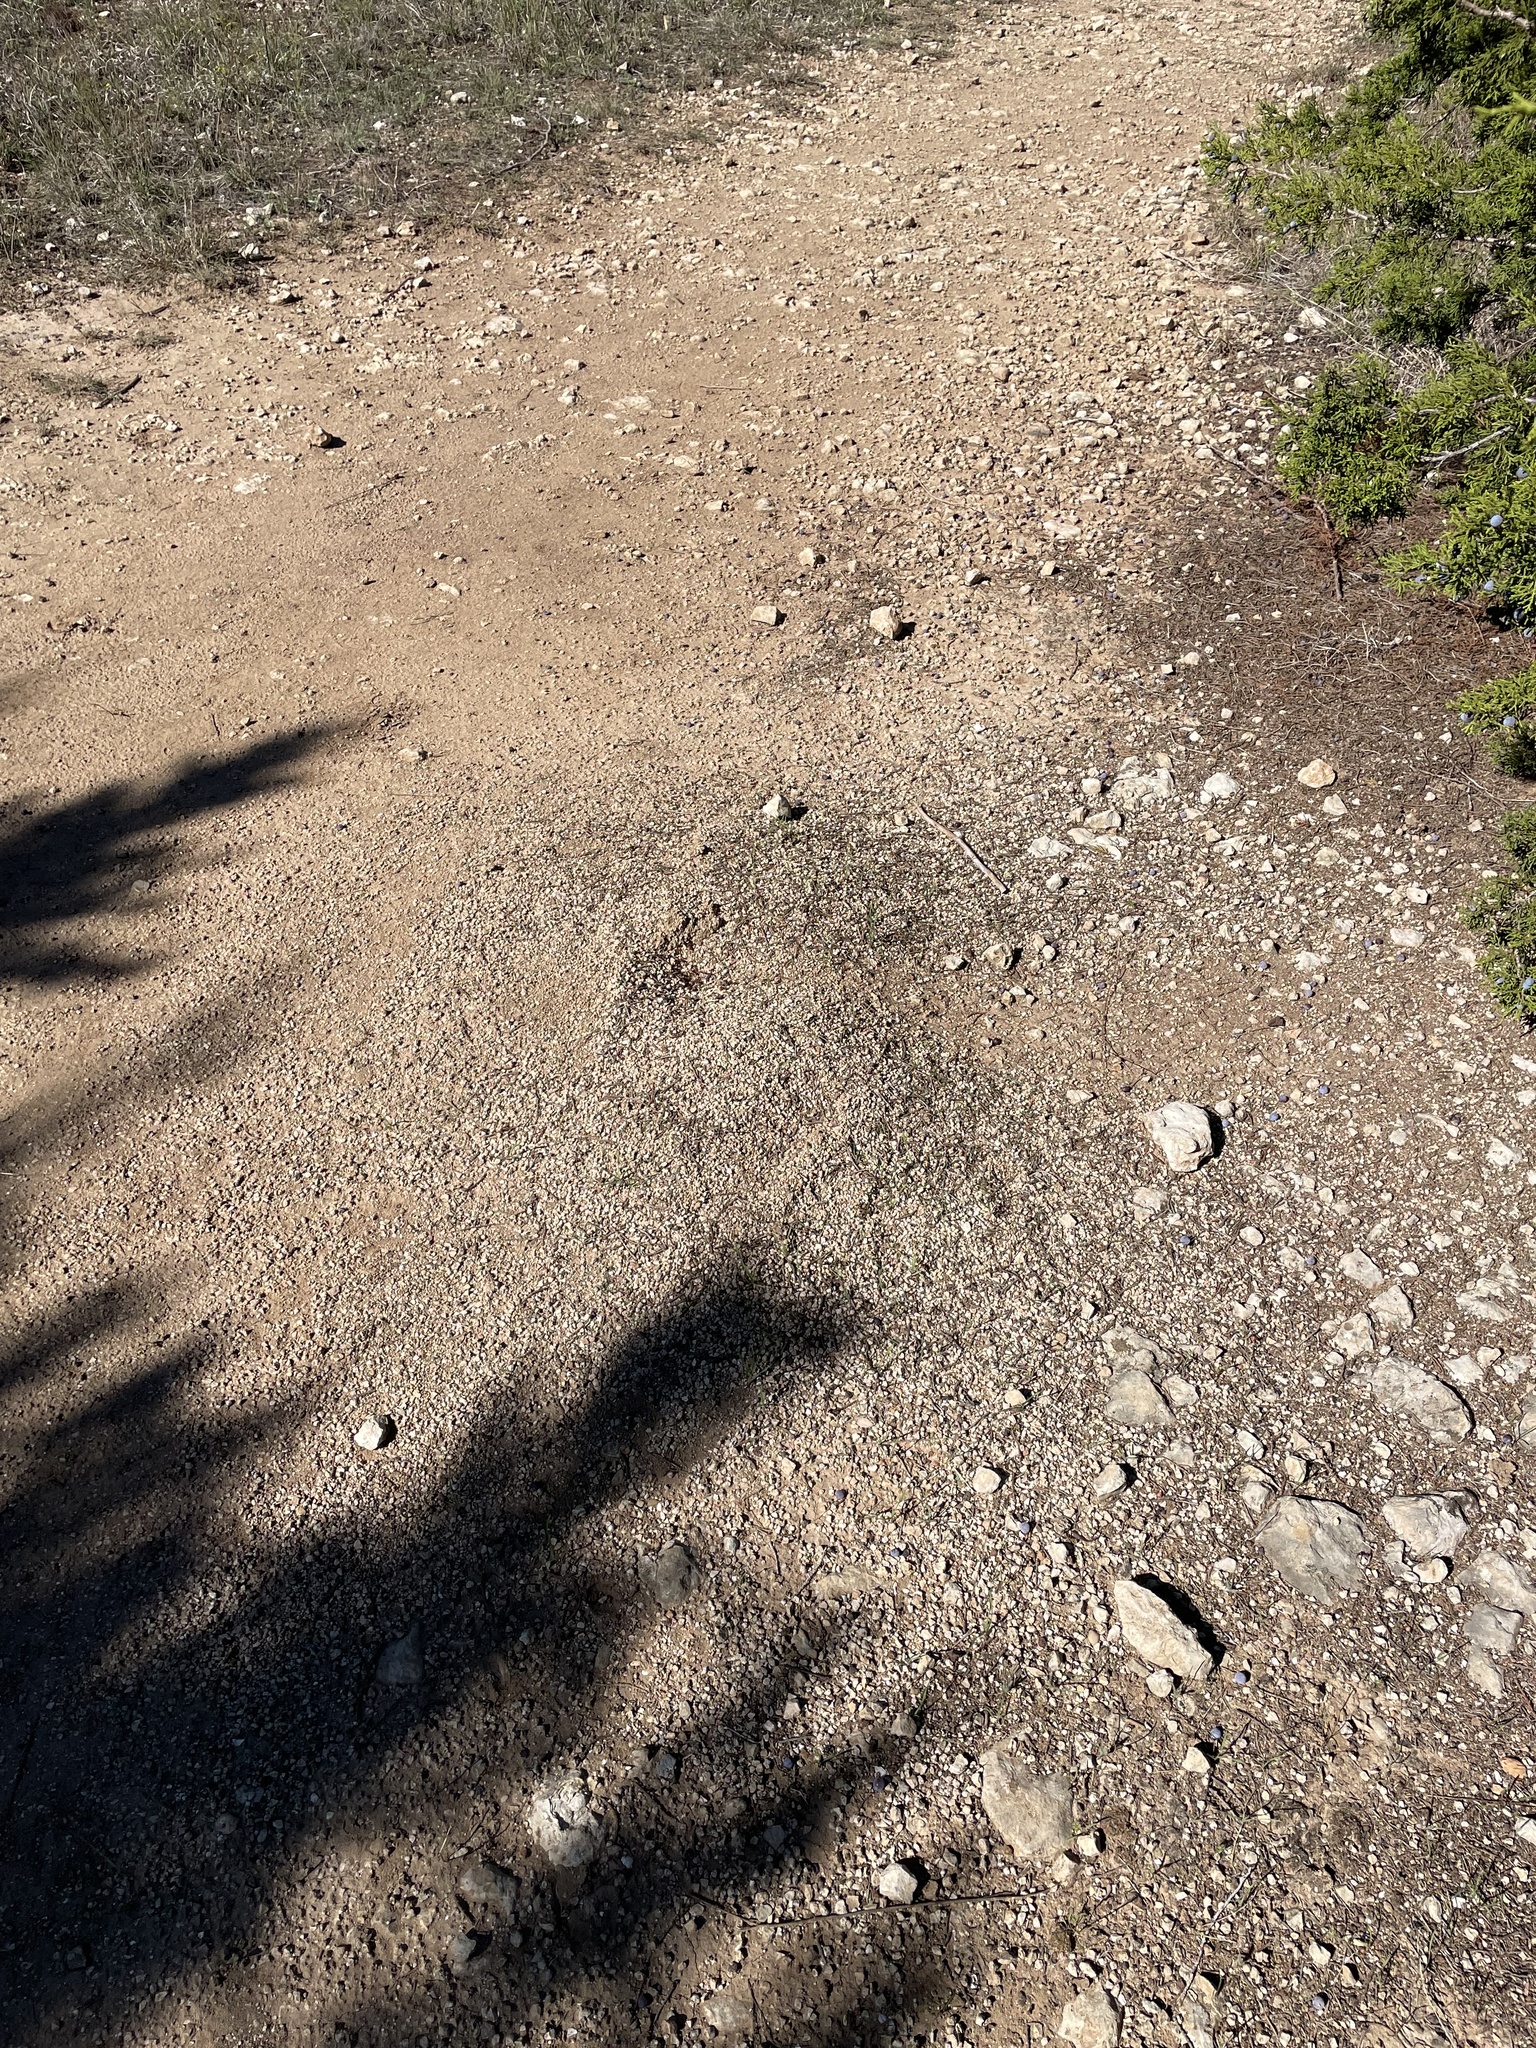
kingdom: Animalia
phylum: Arthropoda
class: Insecta
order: Hymenoptera
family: Formicidae
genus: Pogonomyrmex
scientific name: Pogonomyrmex barbatus
